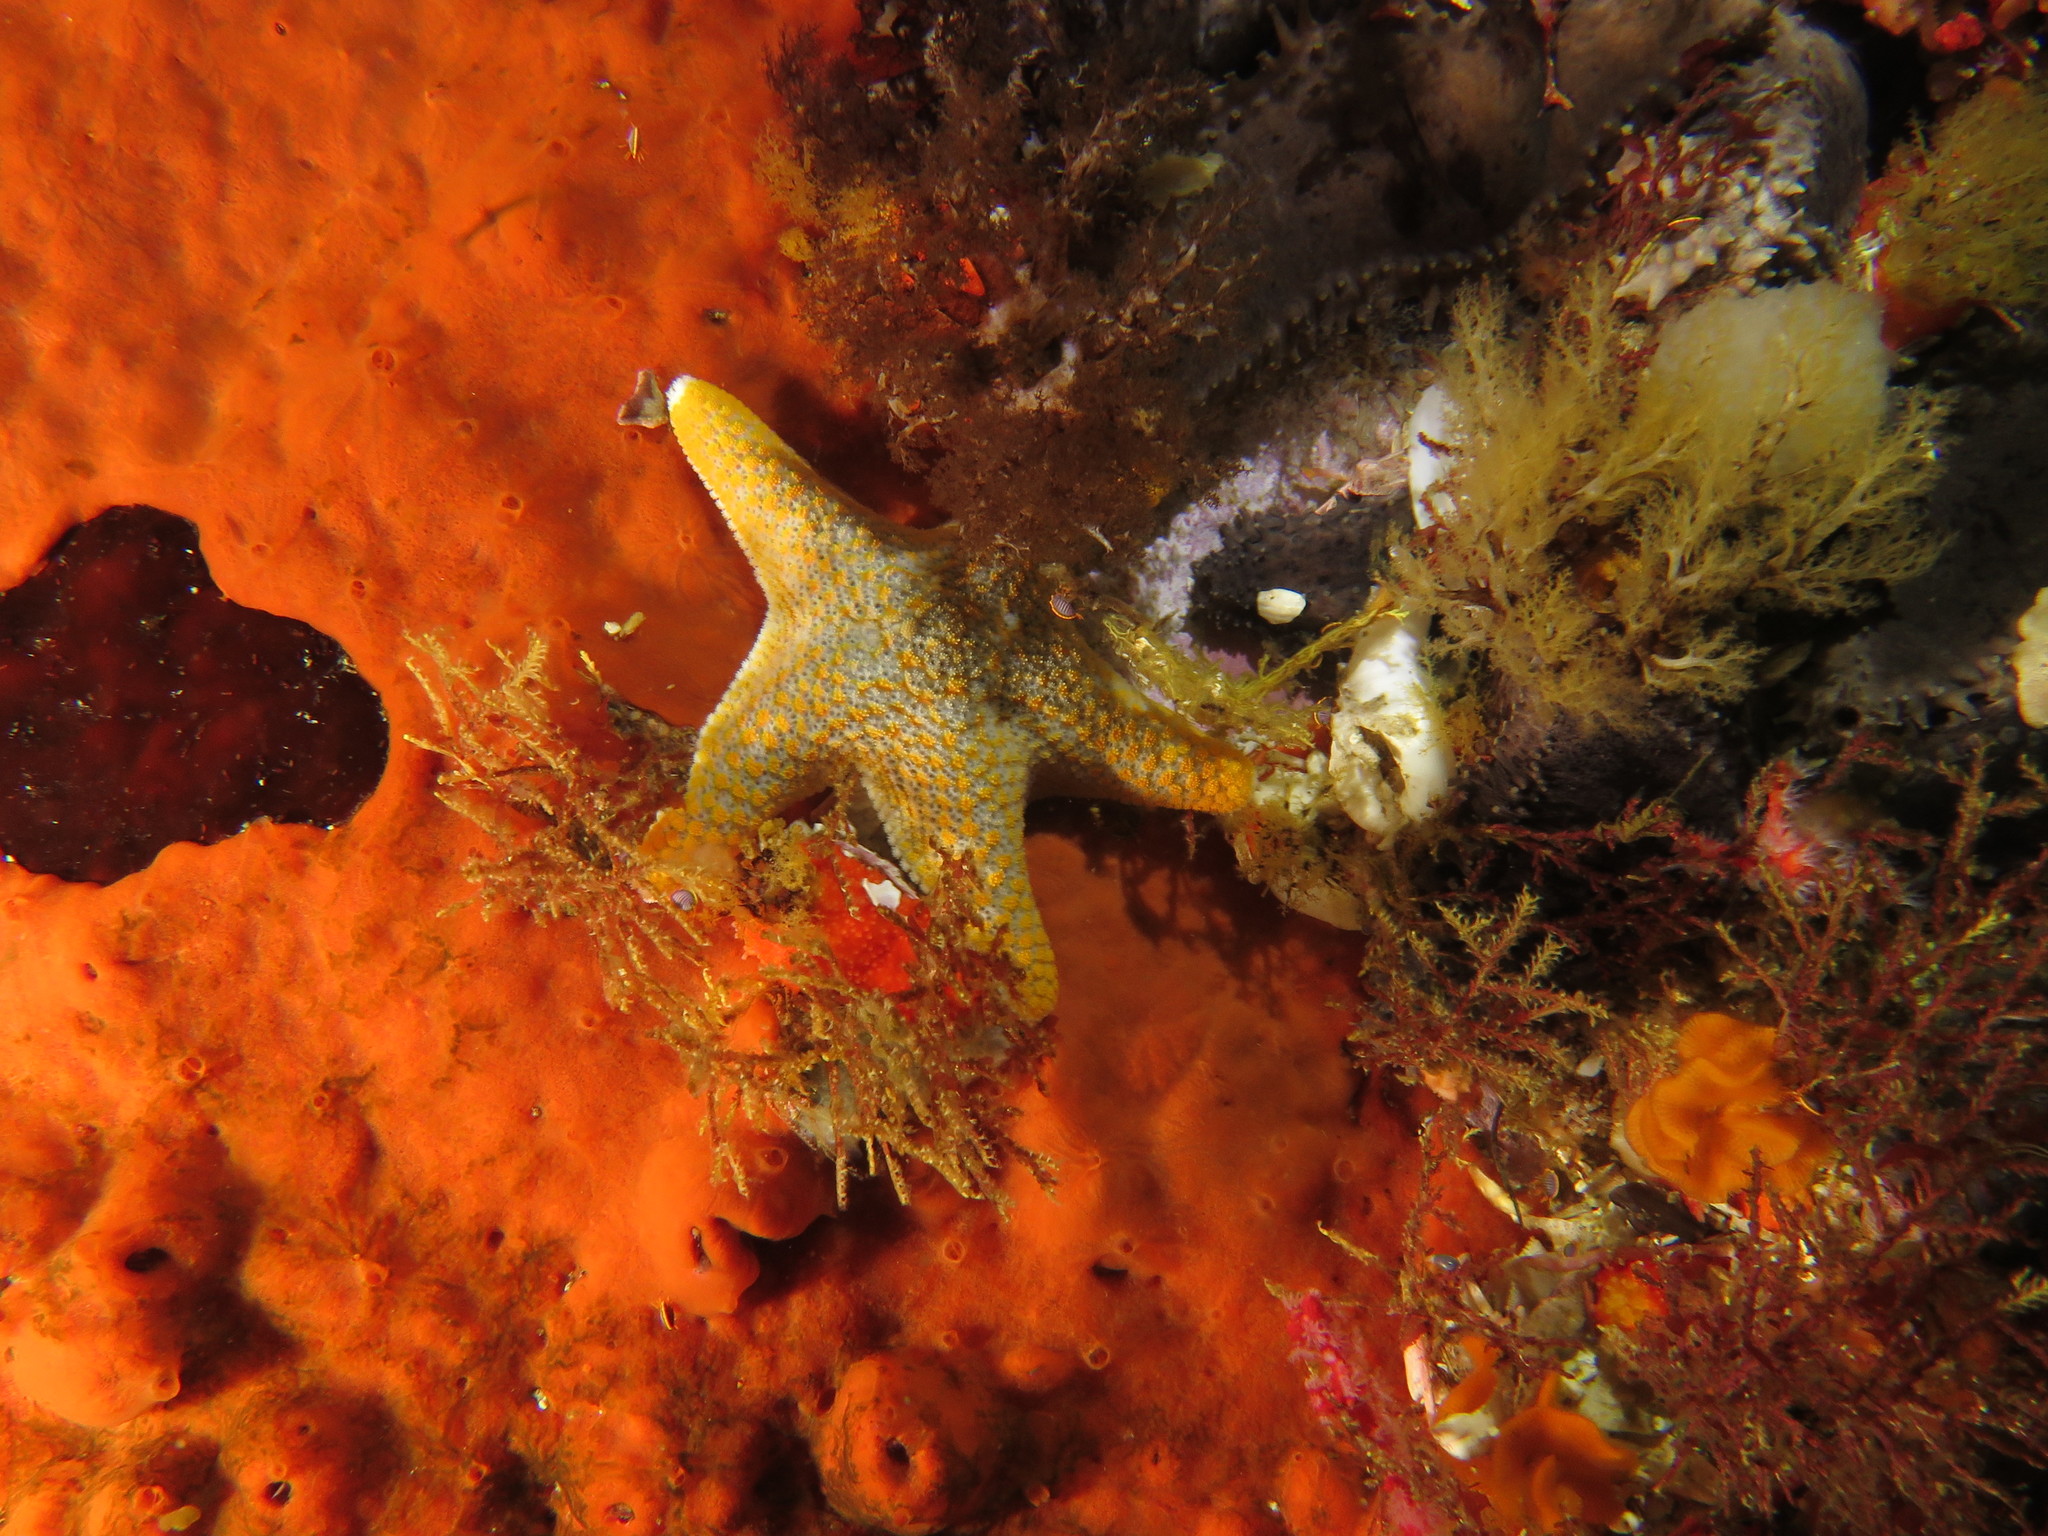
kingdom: Animalia
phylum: Echinodermata
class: Asteroidea
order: Valvatida
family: Asterinidae
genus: Callopatiria
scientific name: Callopatiria formosa
